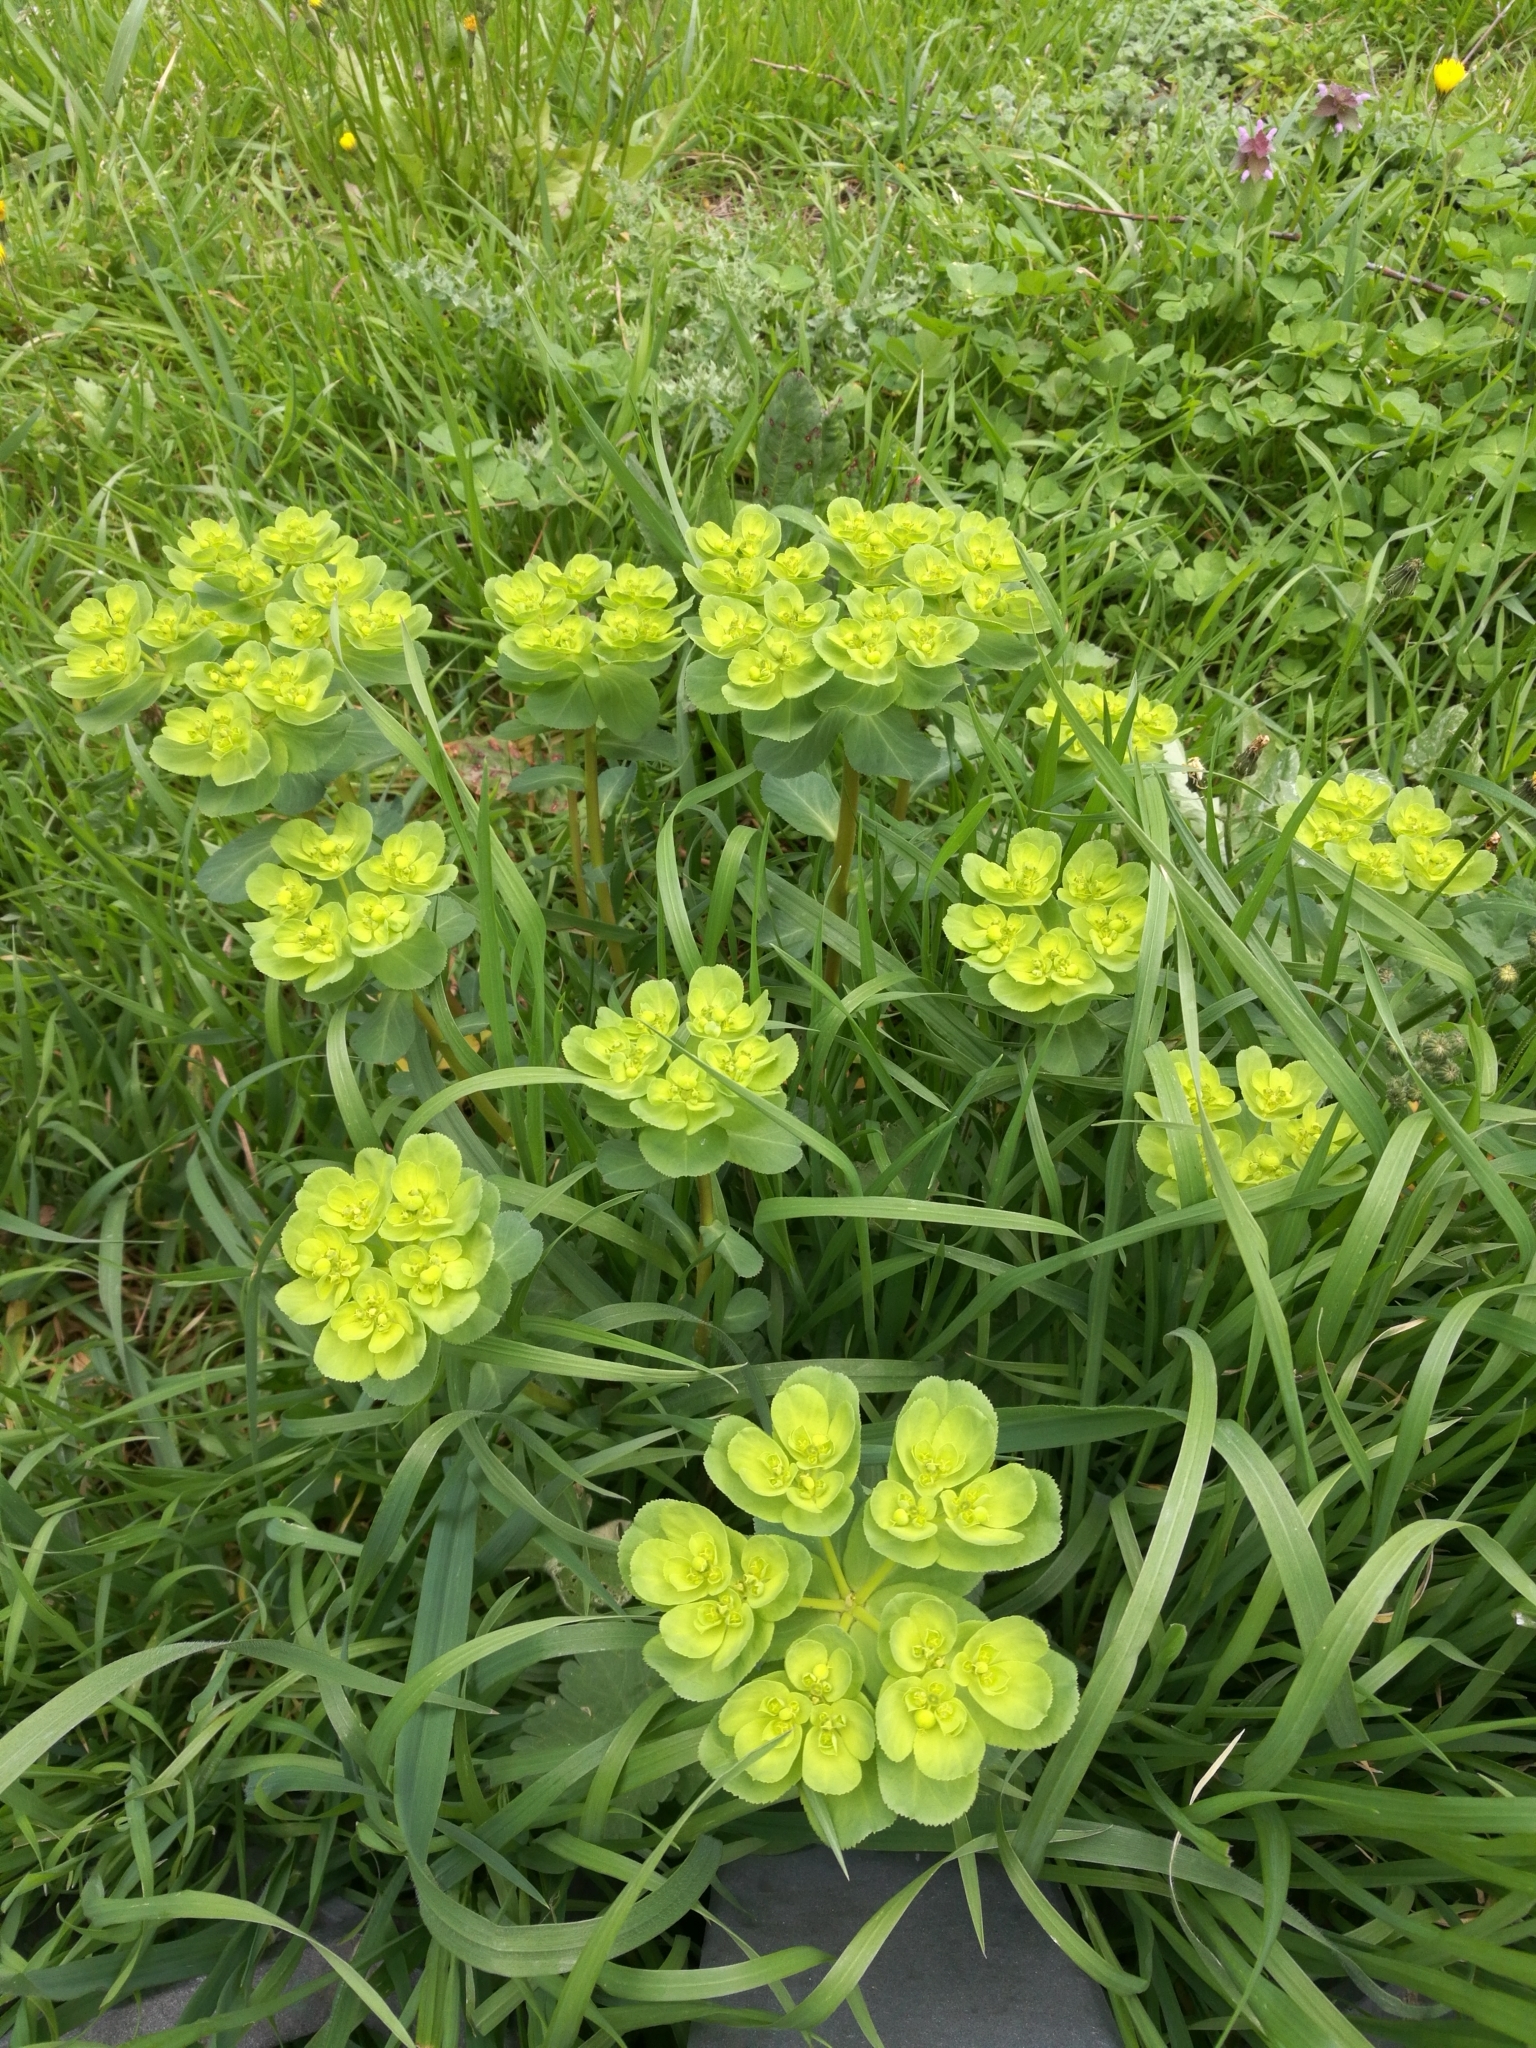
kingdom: Plantae
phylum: Tracheophyta
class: Magnoliopsida
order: Malpighiales
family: Euphorbiaceae
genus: Euphorbia
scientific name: Euphorbia helioscopia
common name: Sun spurge
